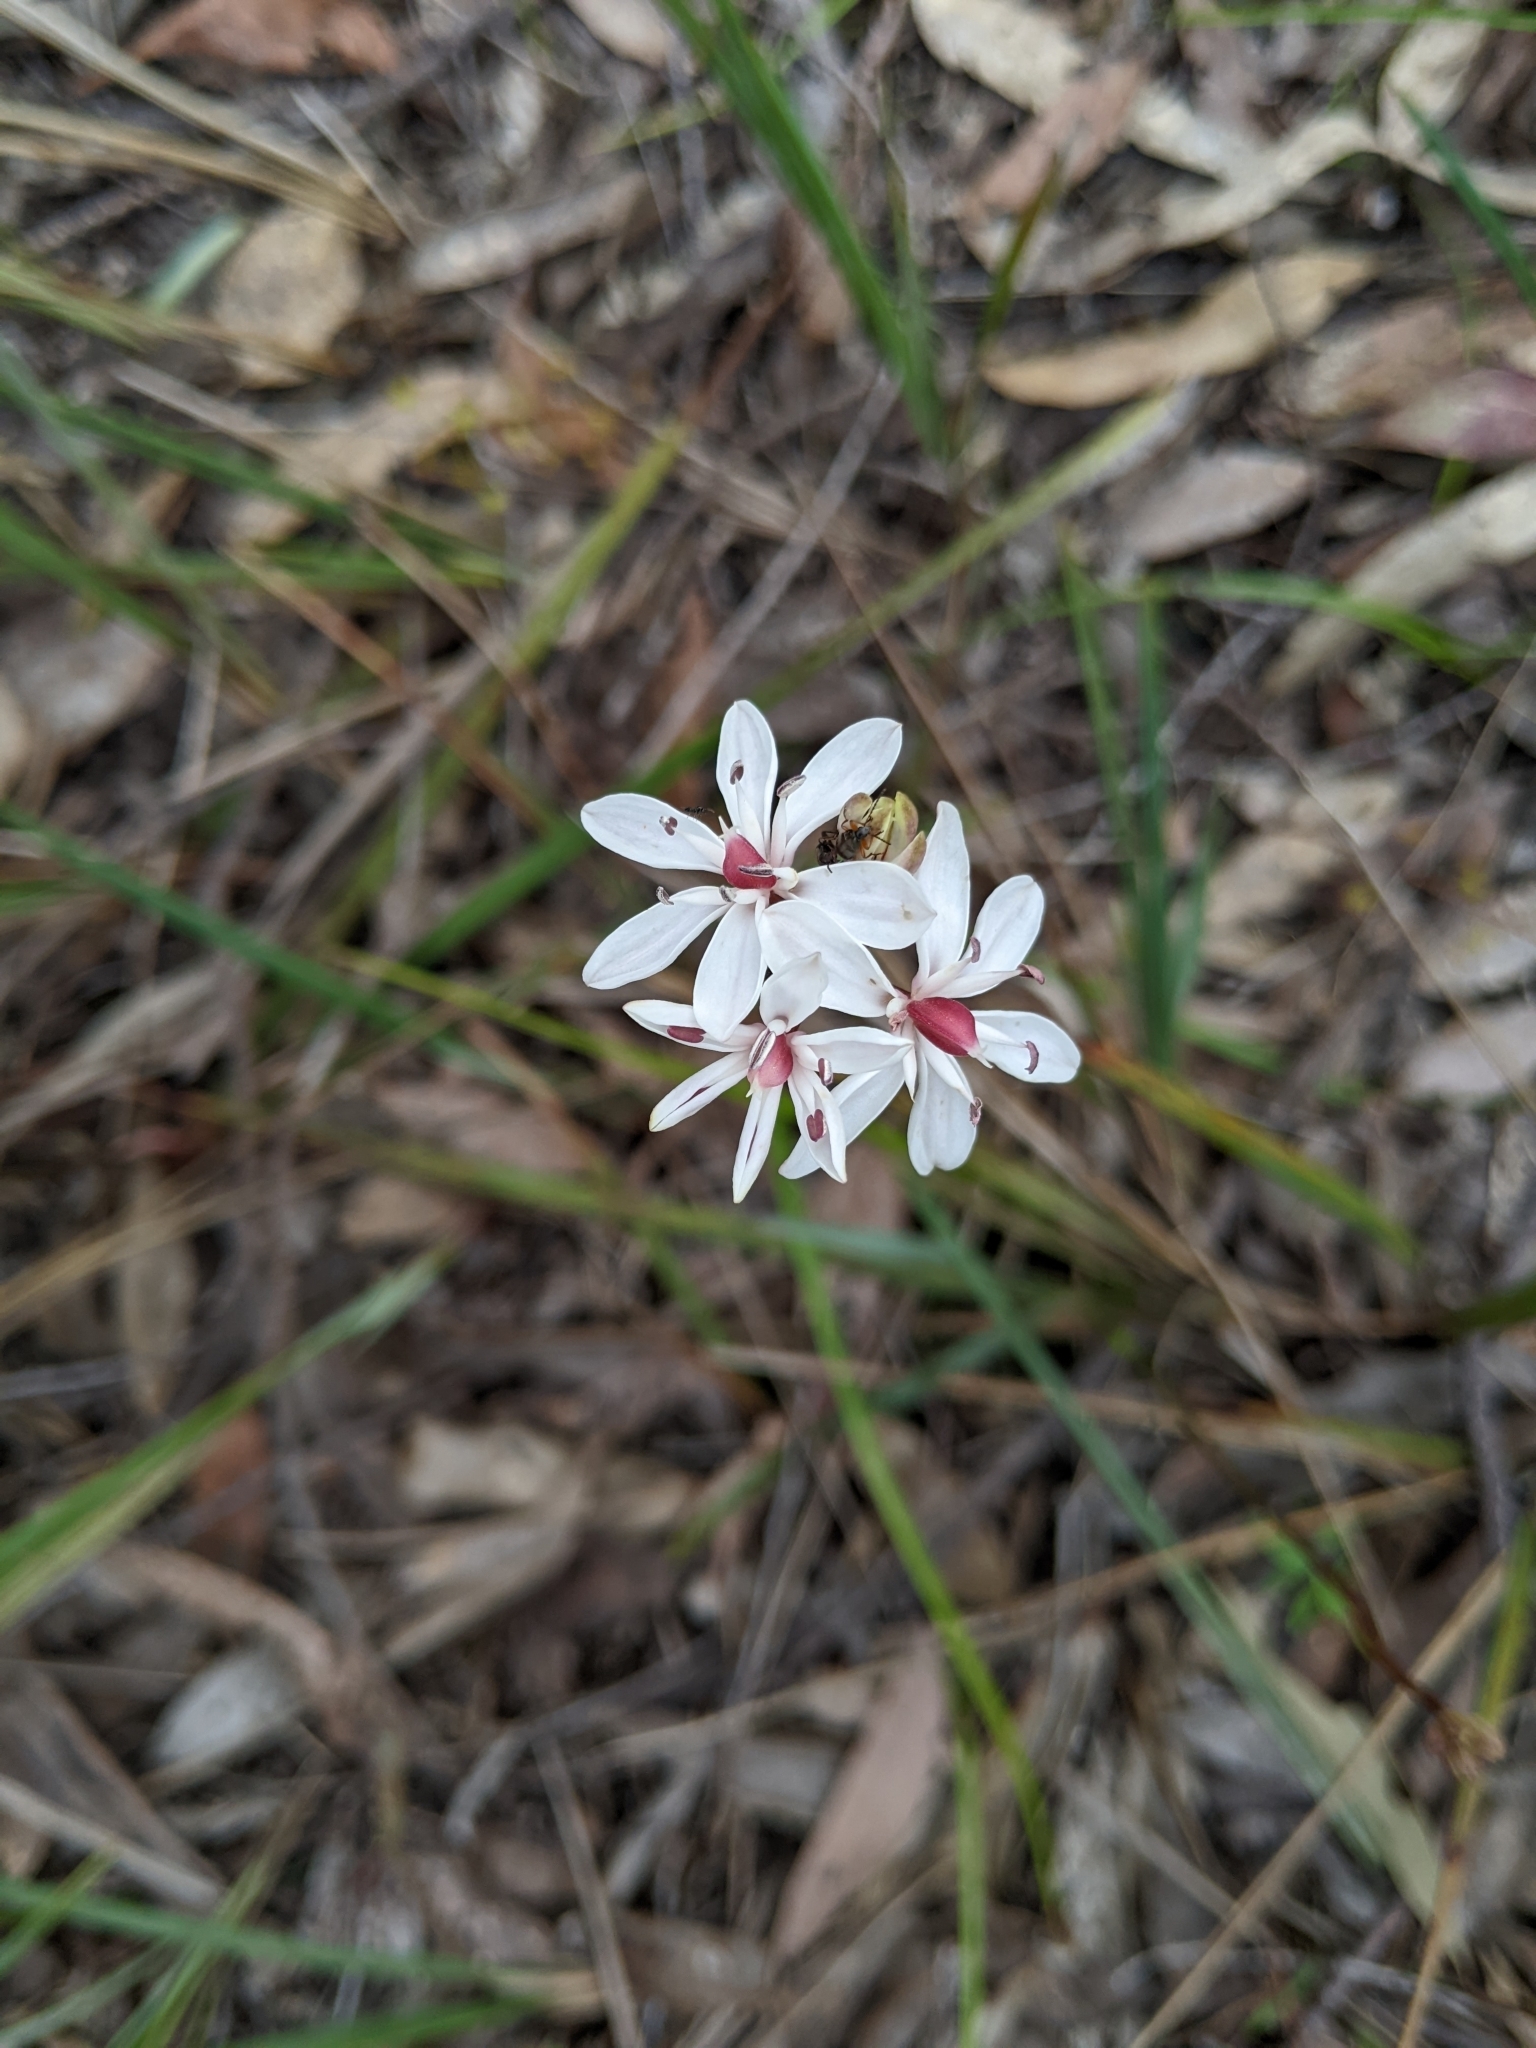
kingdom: Plantae
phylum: Tracheophyta
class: Liliopsida
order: Liliales
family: Colchicaceae
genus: Burchardia
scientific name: Burchardia umbellata
